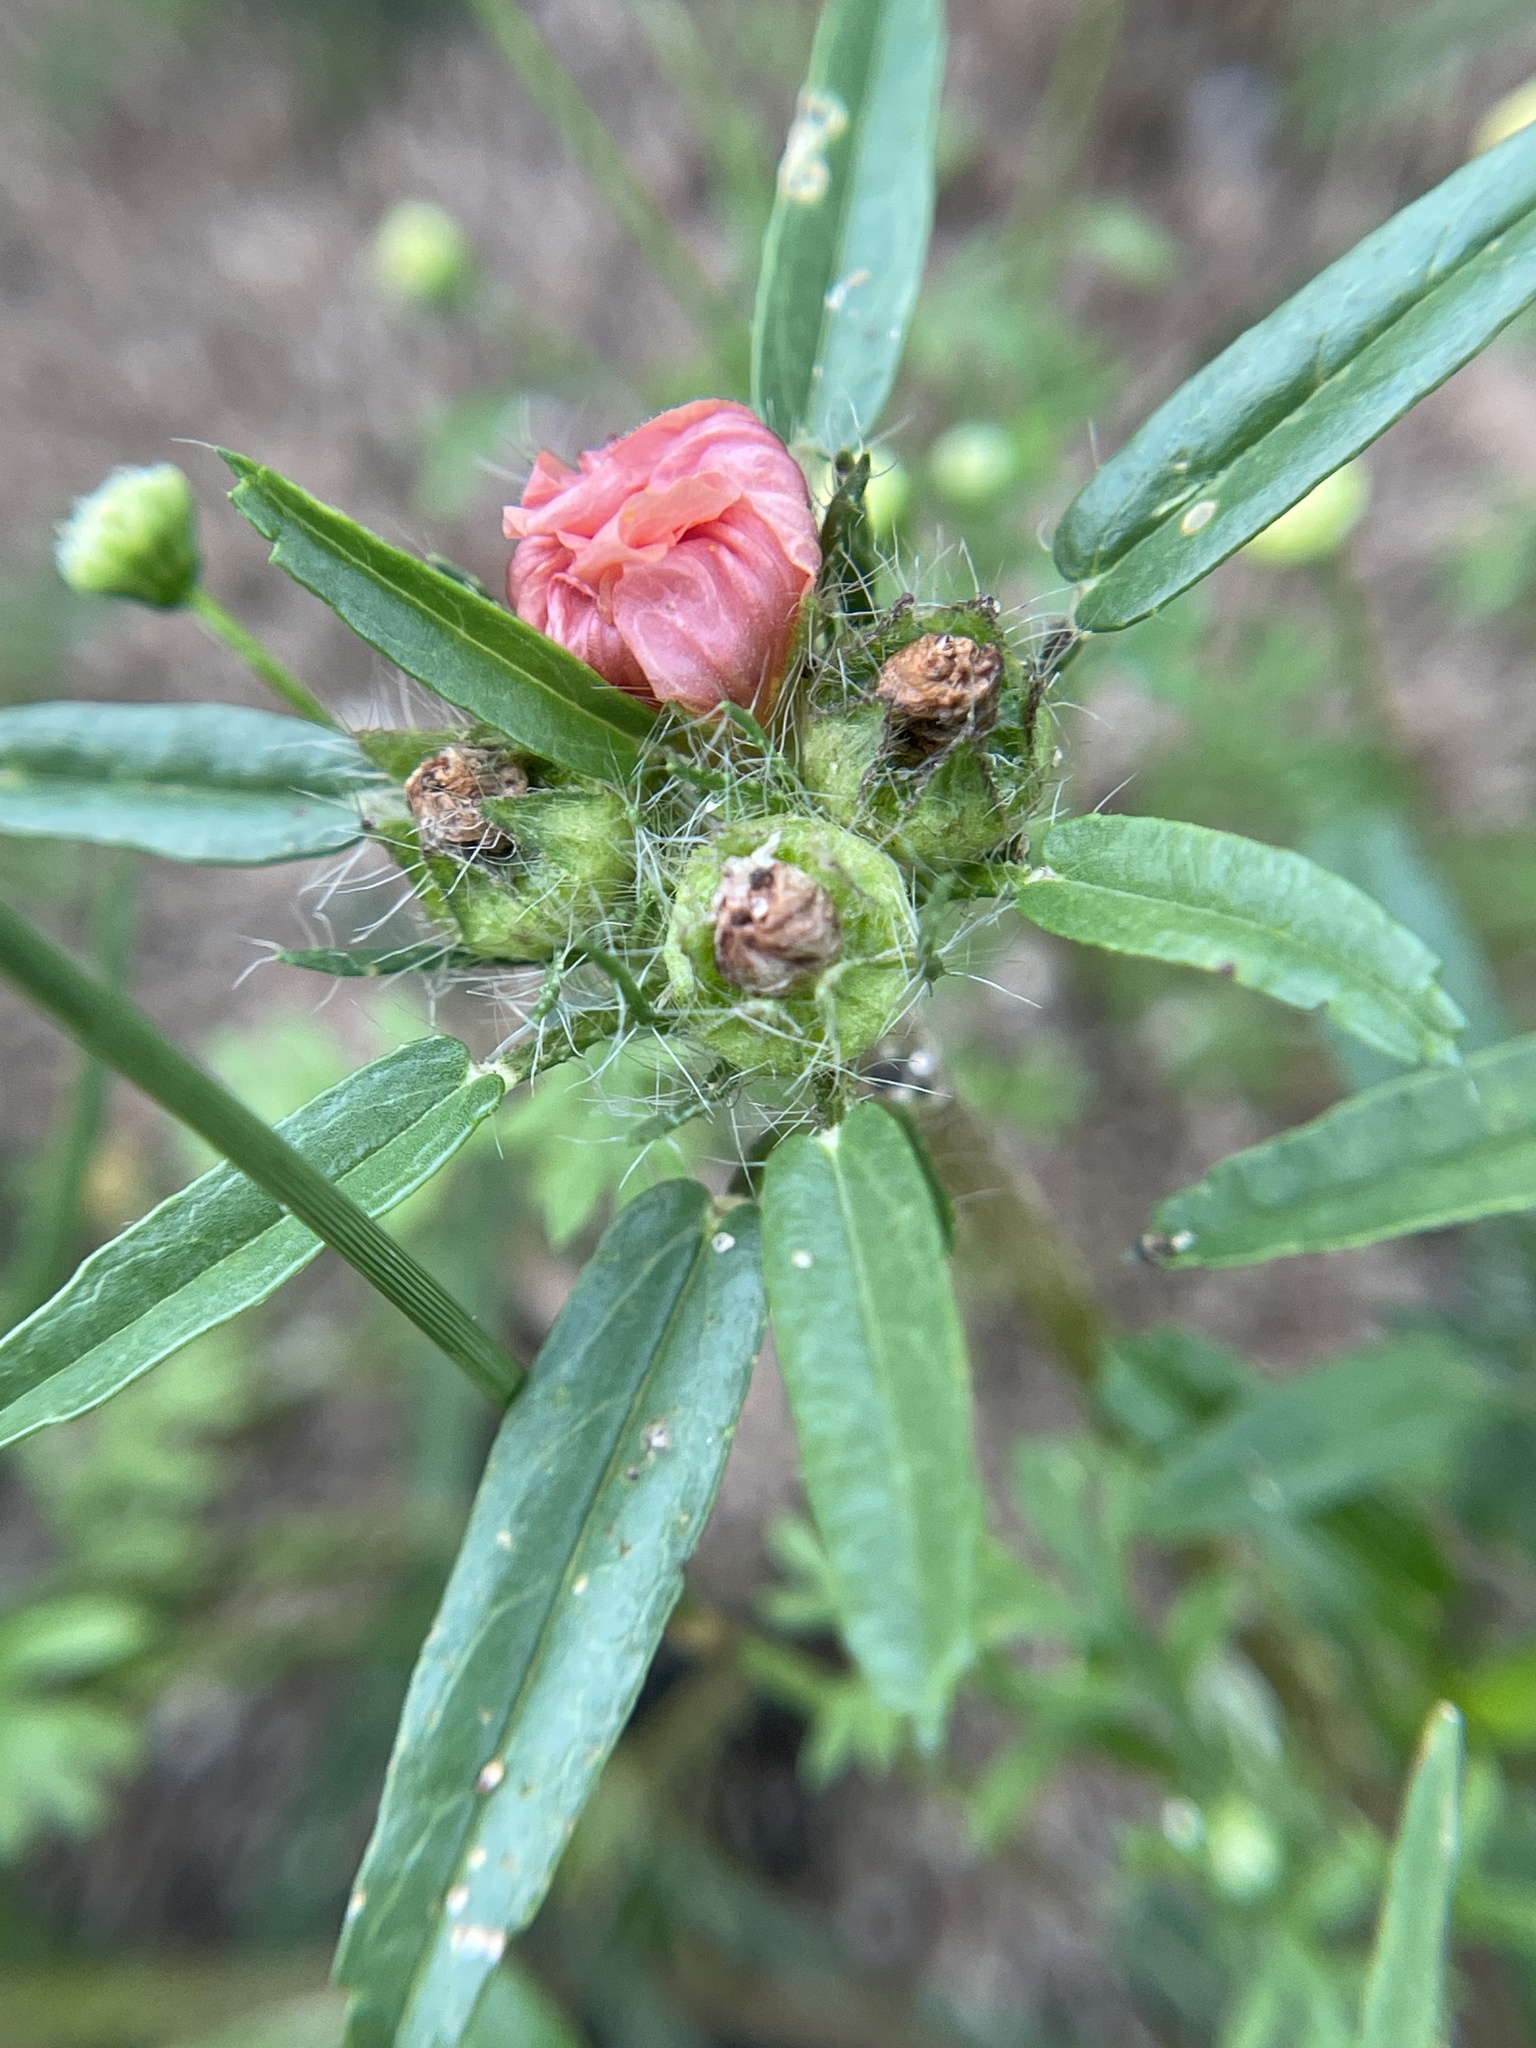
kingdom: Plantae
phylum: Tracheophyta
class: Magnoliopsida
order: Malvales
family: Malvaceae
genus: Sida
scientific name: Sida ciliaris
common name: Bracted fanpetals
